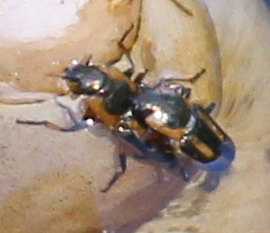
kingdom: Animalia
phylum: Arthropoda
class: Insecta
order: Coleoptera
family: Chrysomelidae
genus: Prasocuris
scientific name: Prasocuris phellandrii
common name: Leaf beetle
